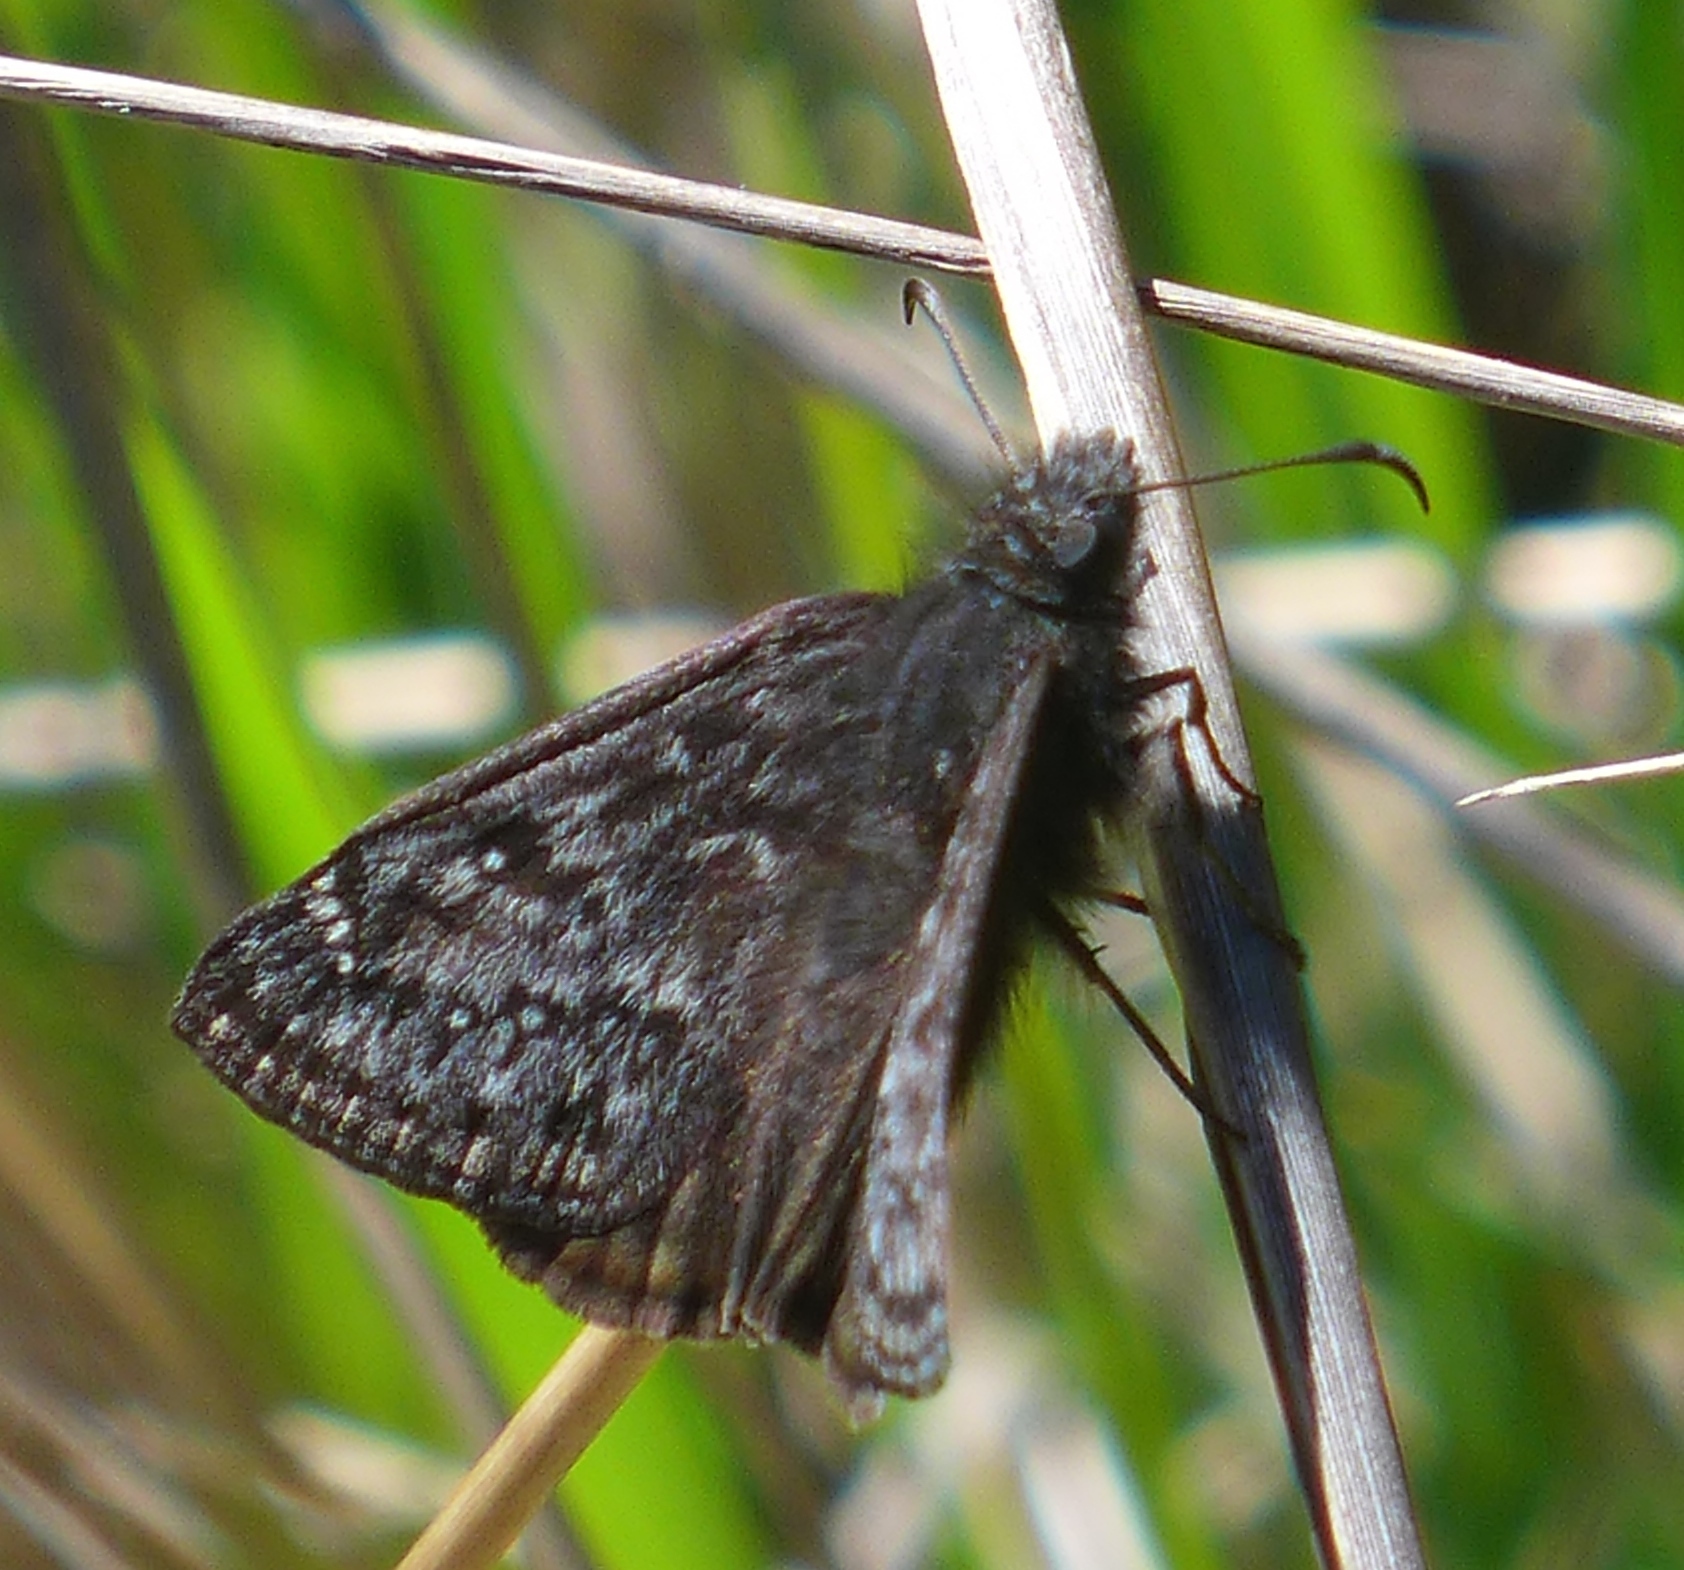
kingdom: Animalia
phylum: Arthropoda
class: Insecta
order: Lepidoptera
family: Hesperiidae
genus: Erynnis
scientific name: Erynnis propertius
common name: Propertius duskywing
